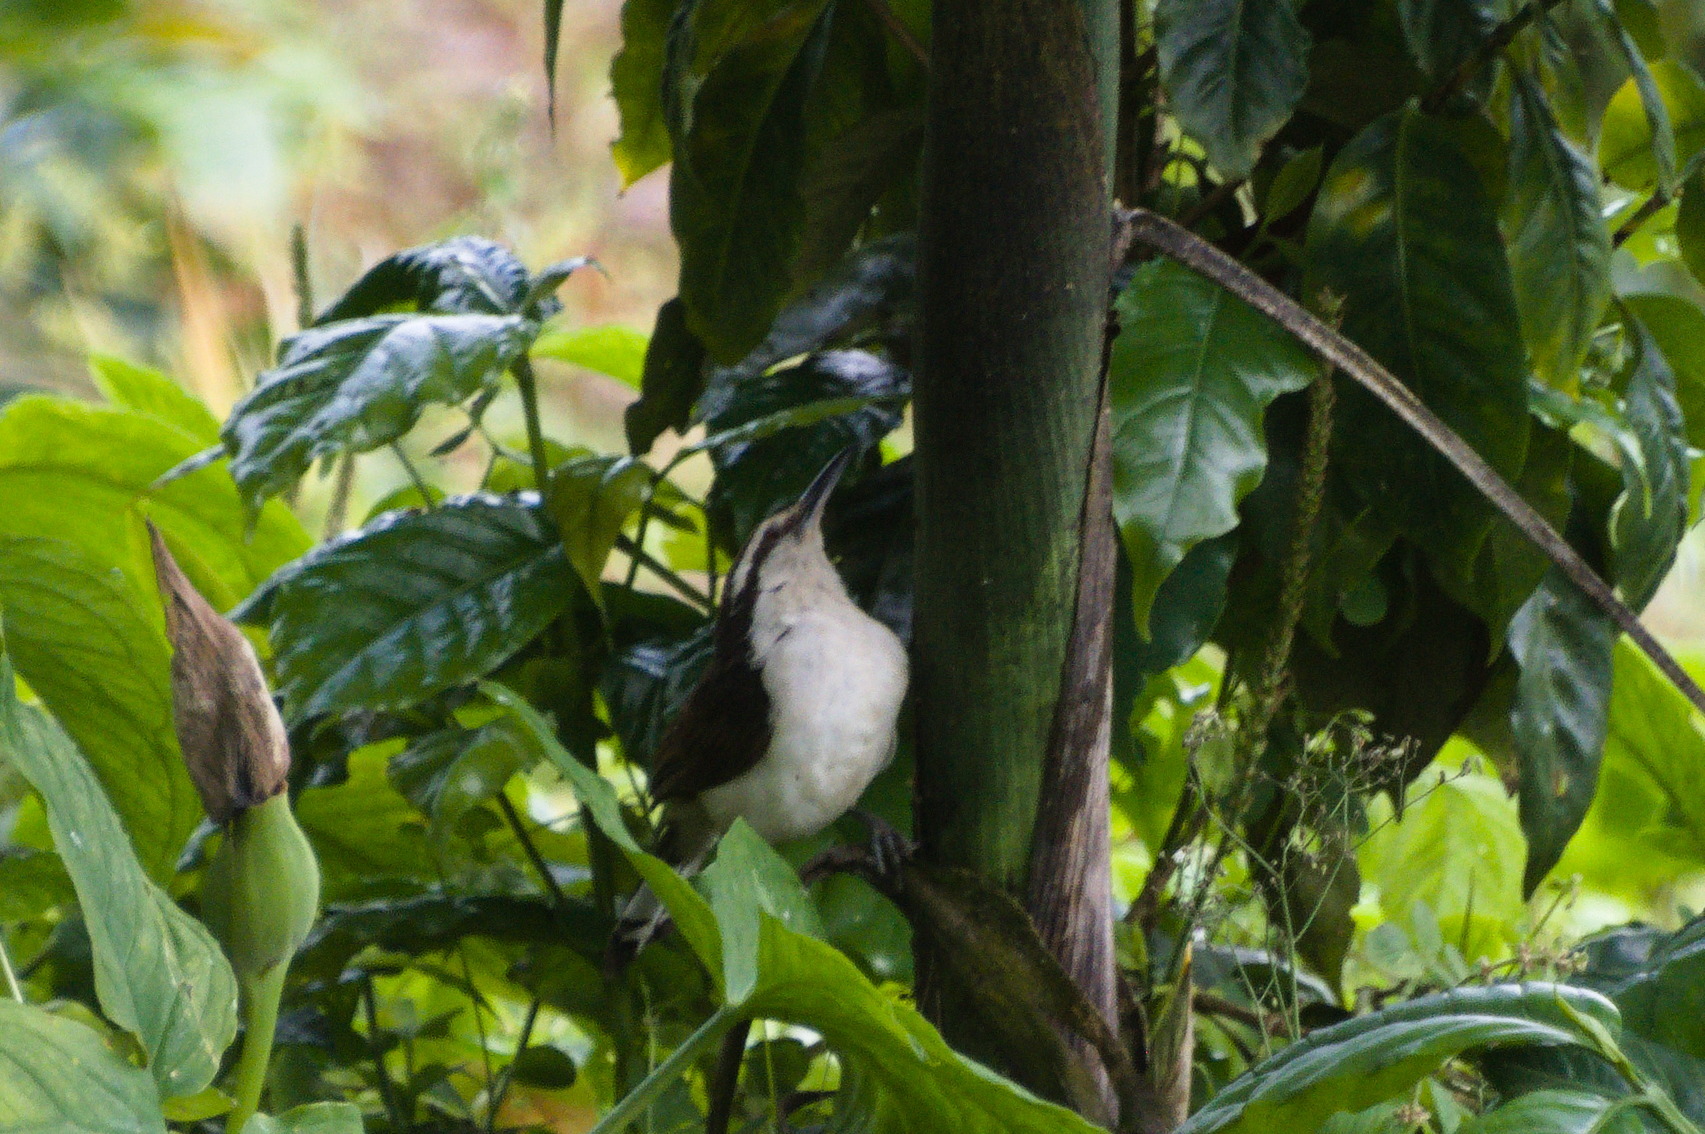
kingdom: Animalia
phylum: Chordata
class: Aves
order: Passeriformes
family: Troglodytidae
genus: Campylorhynchus
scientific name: Campylorhynchus griseus
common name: Bicolored wren
